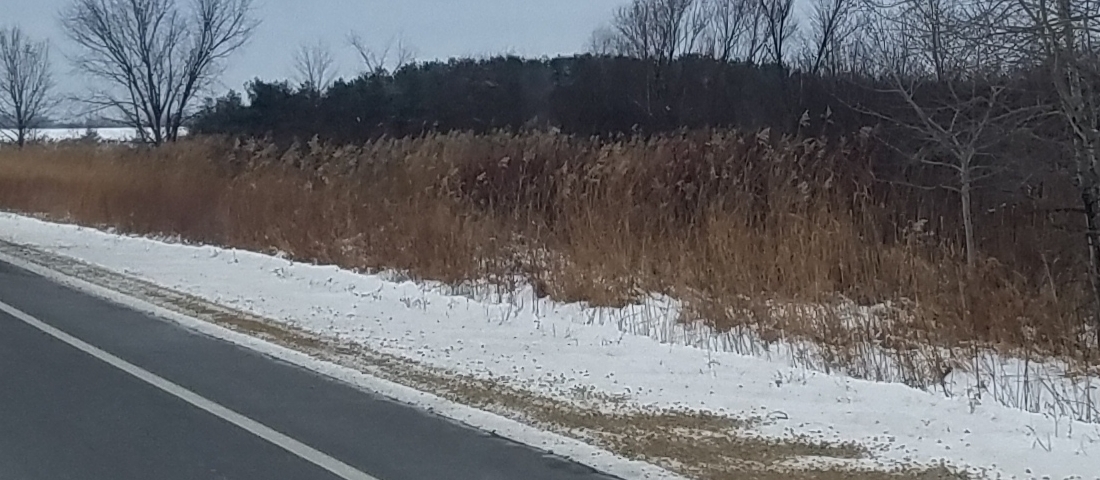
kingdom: Plantae
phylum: Tracheophyta
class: Liliopsida
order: Poales
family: Poaceae
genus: Phragmites
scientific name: Phragmites australis
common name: Common reed
